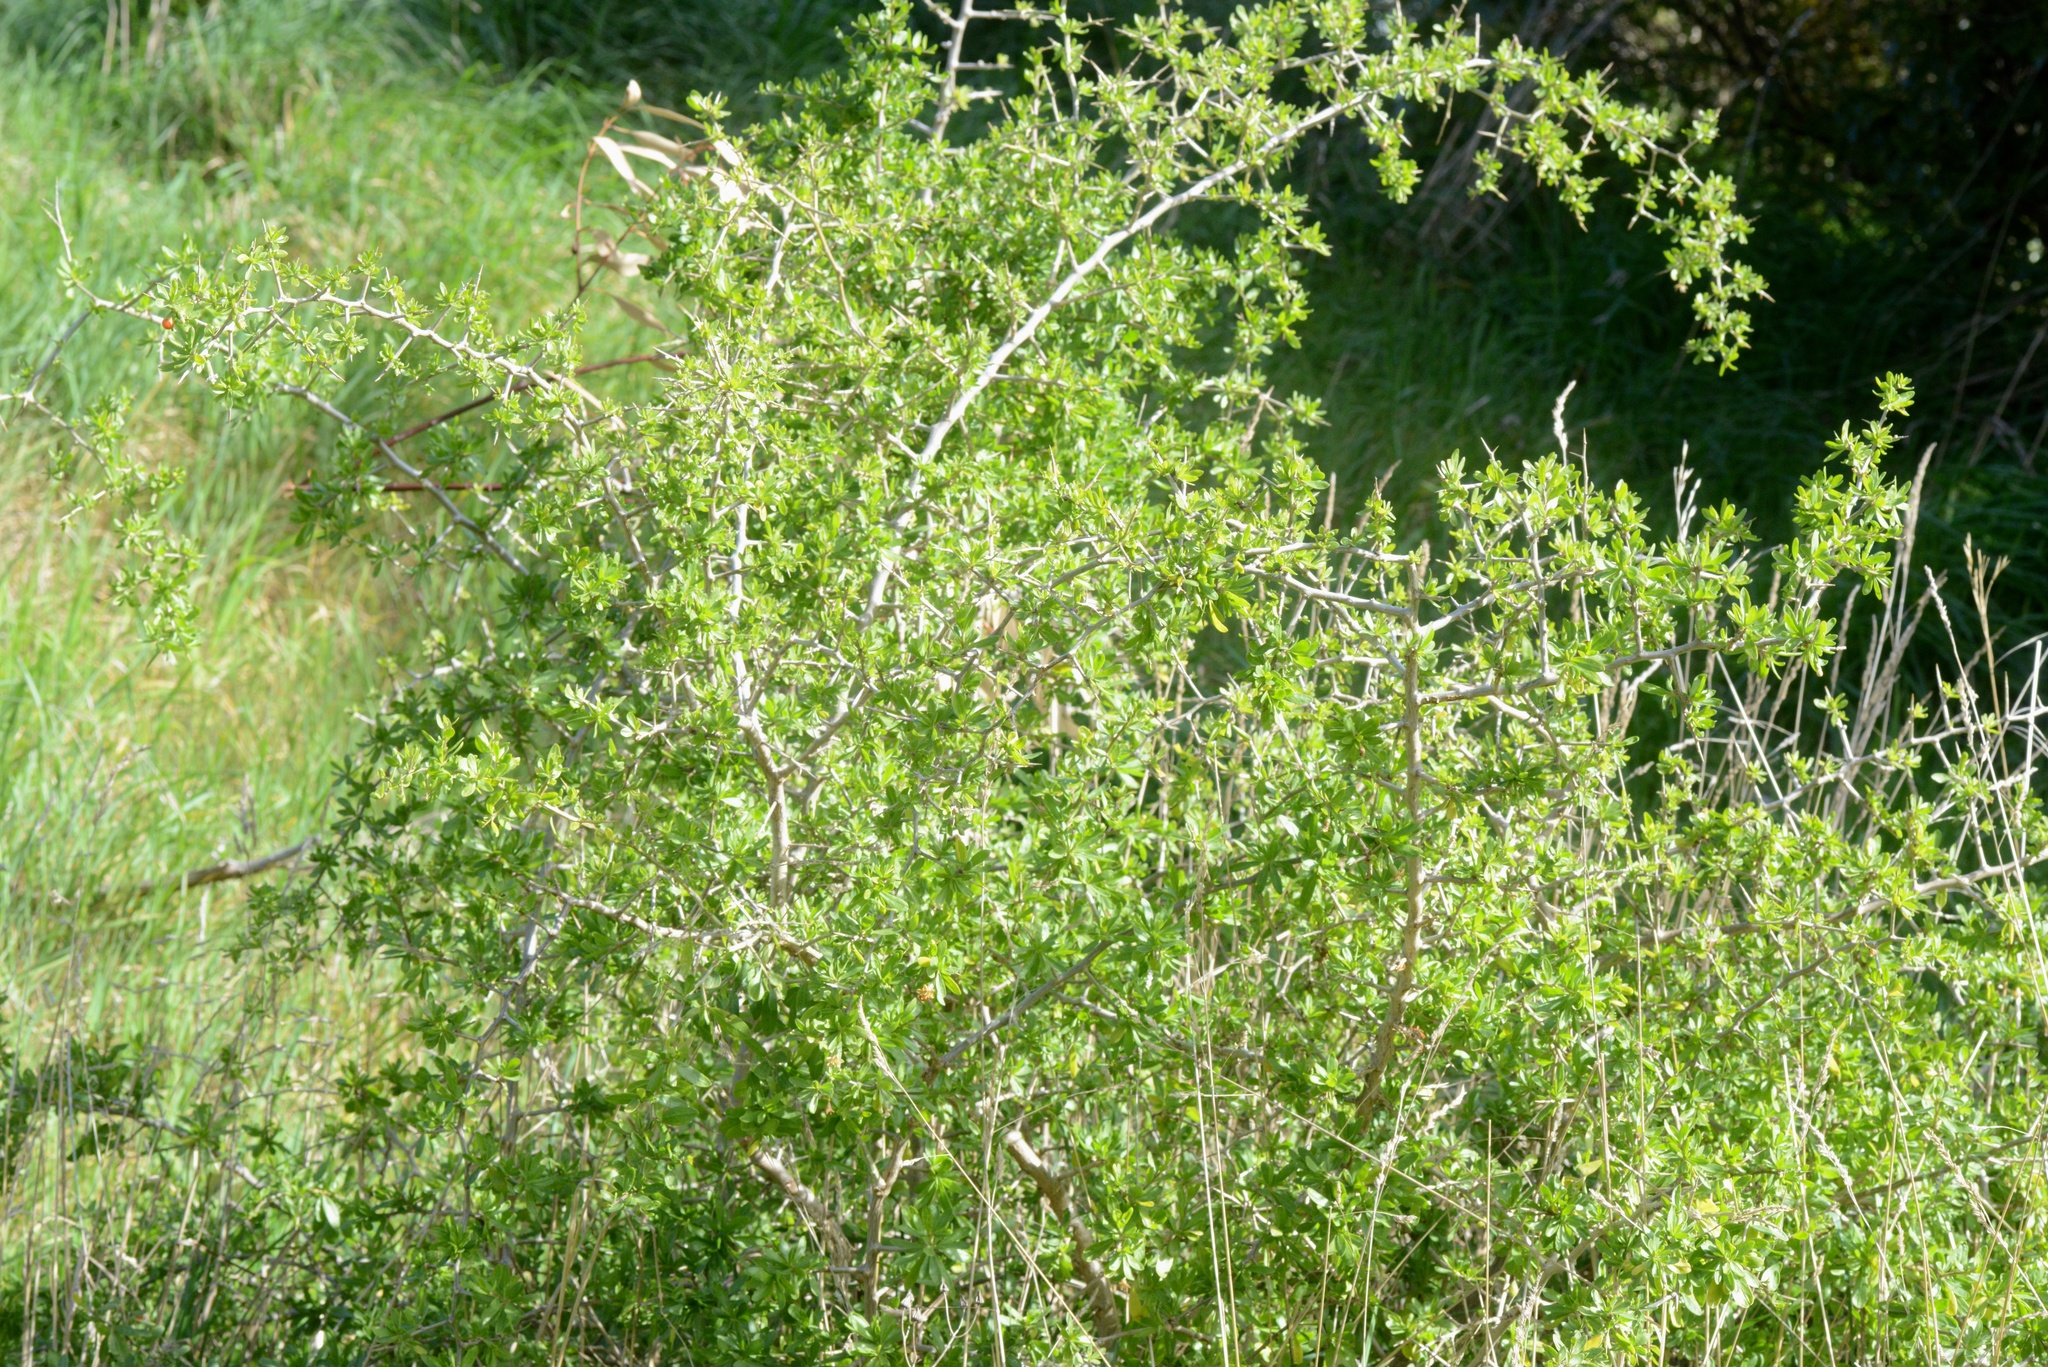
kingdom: Plantae
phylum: Tracheophyta
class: Magnoliopsida
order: Solanales
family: Solanaceae
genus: Lycium
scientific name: Lycium ferocissimum
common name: African boxthorn
